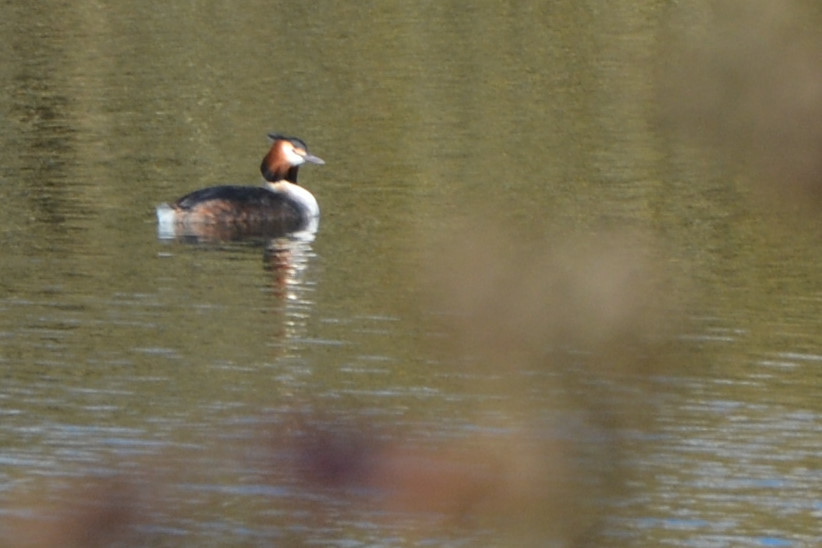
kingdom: Animalia
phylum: Chordata
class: Aves
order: Podicipediformes
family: Podicipedidae
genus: Podiceps
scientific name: Podiceps cristatus
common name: Great crested grebe
